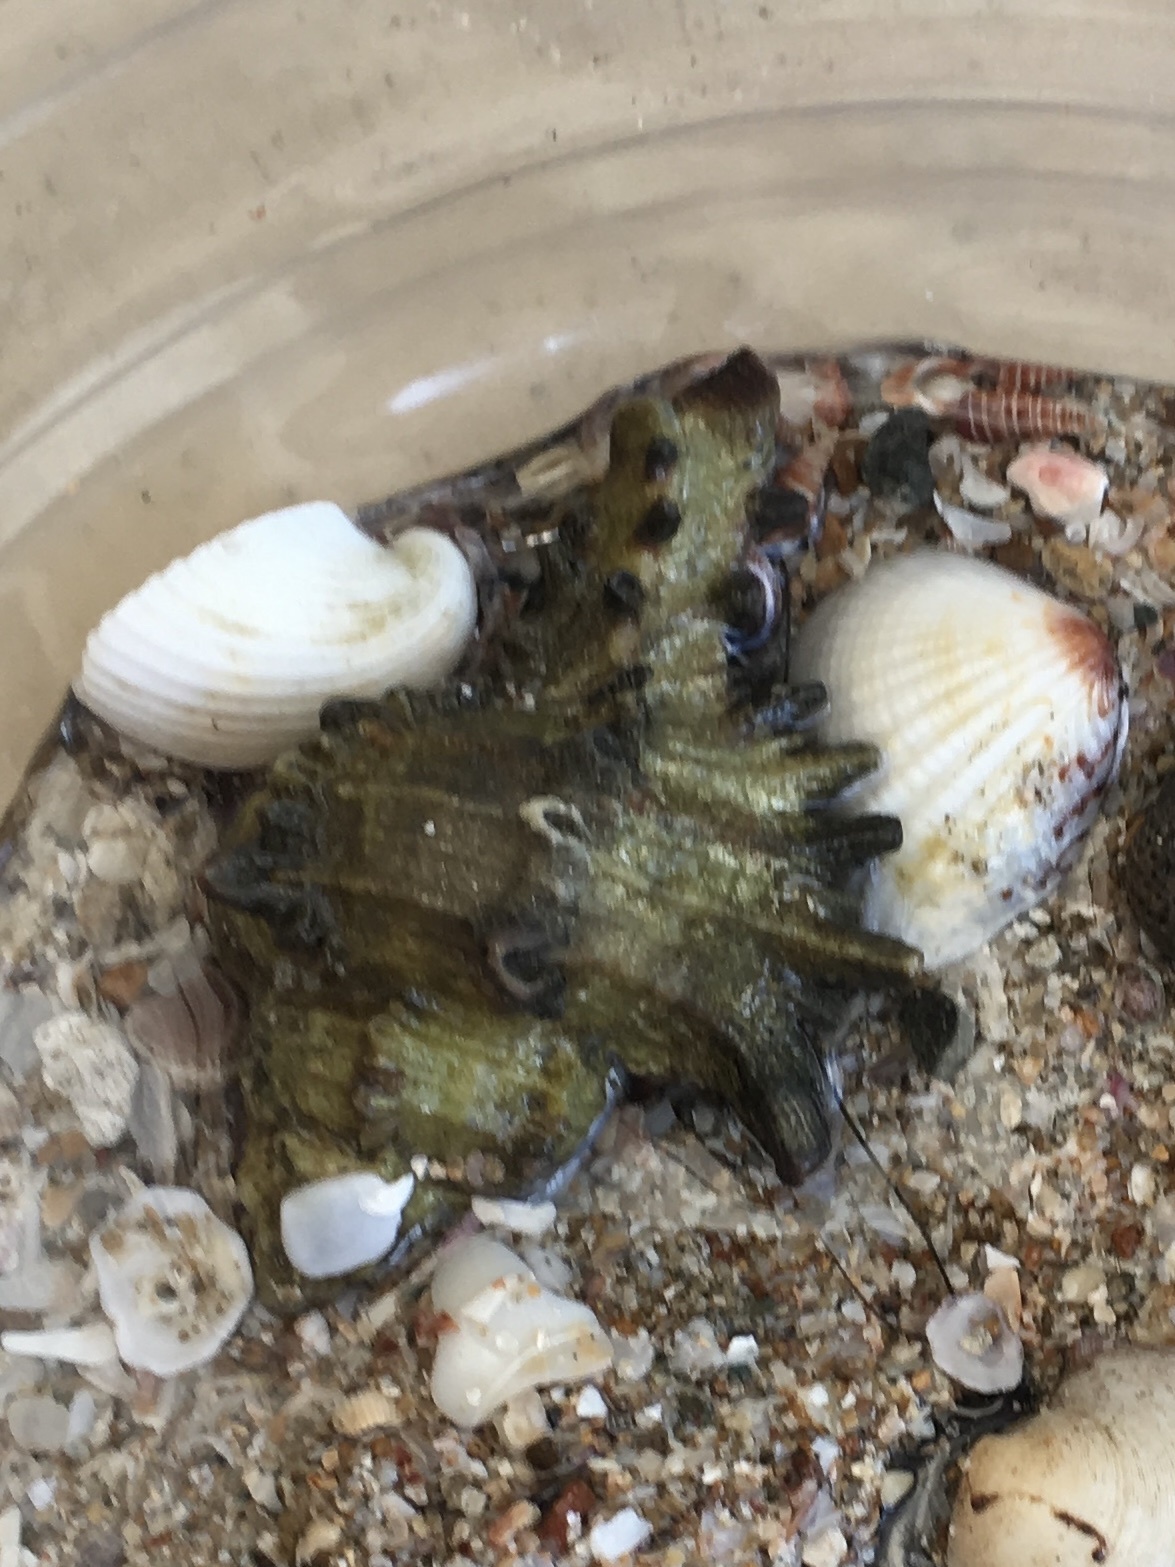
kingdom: Animalia
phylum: Mollusca
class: Bivalvia
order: Venerida
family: Veneridae
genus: Gafrarium
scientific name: Gafrarium pectinatum
